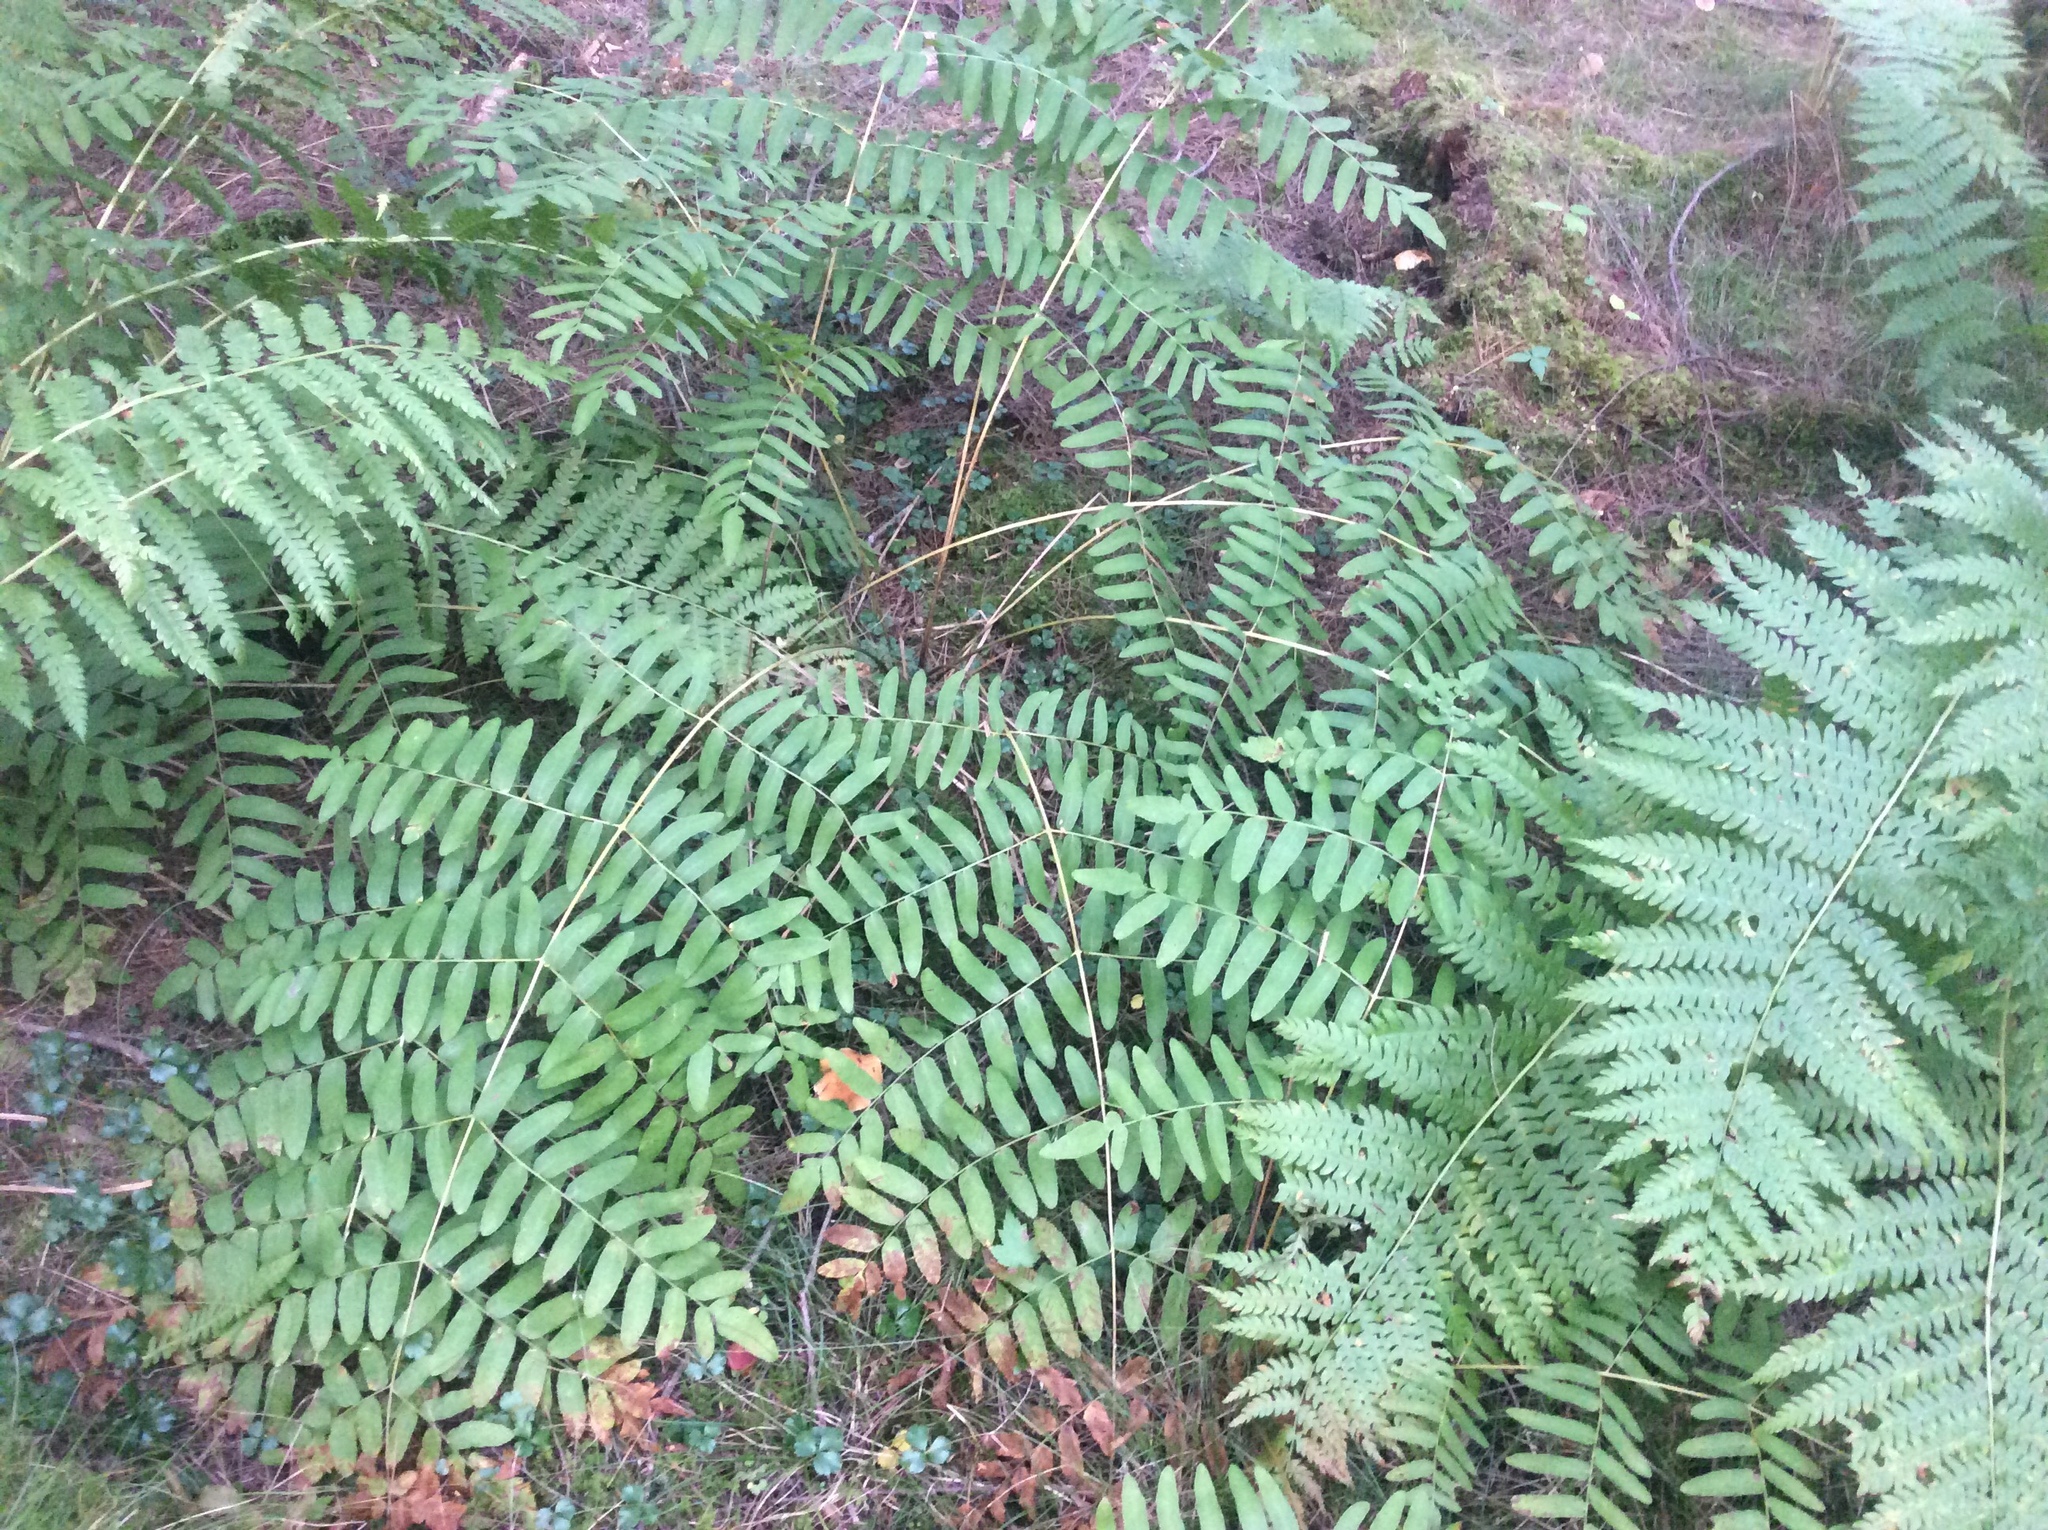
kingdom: Plantae
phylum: Tracheophyta
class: Polypodiopsida
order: Osmundales
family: Osmundaceae
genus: Osmunda
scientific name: Osmunda spectabilis
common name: American royal fern
